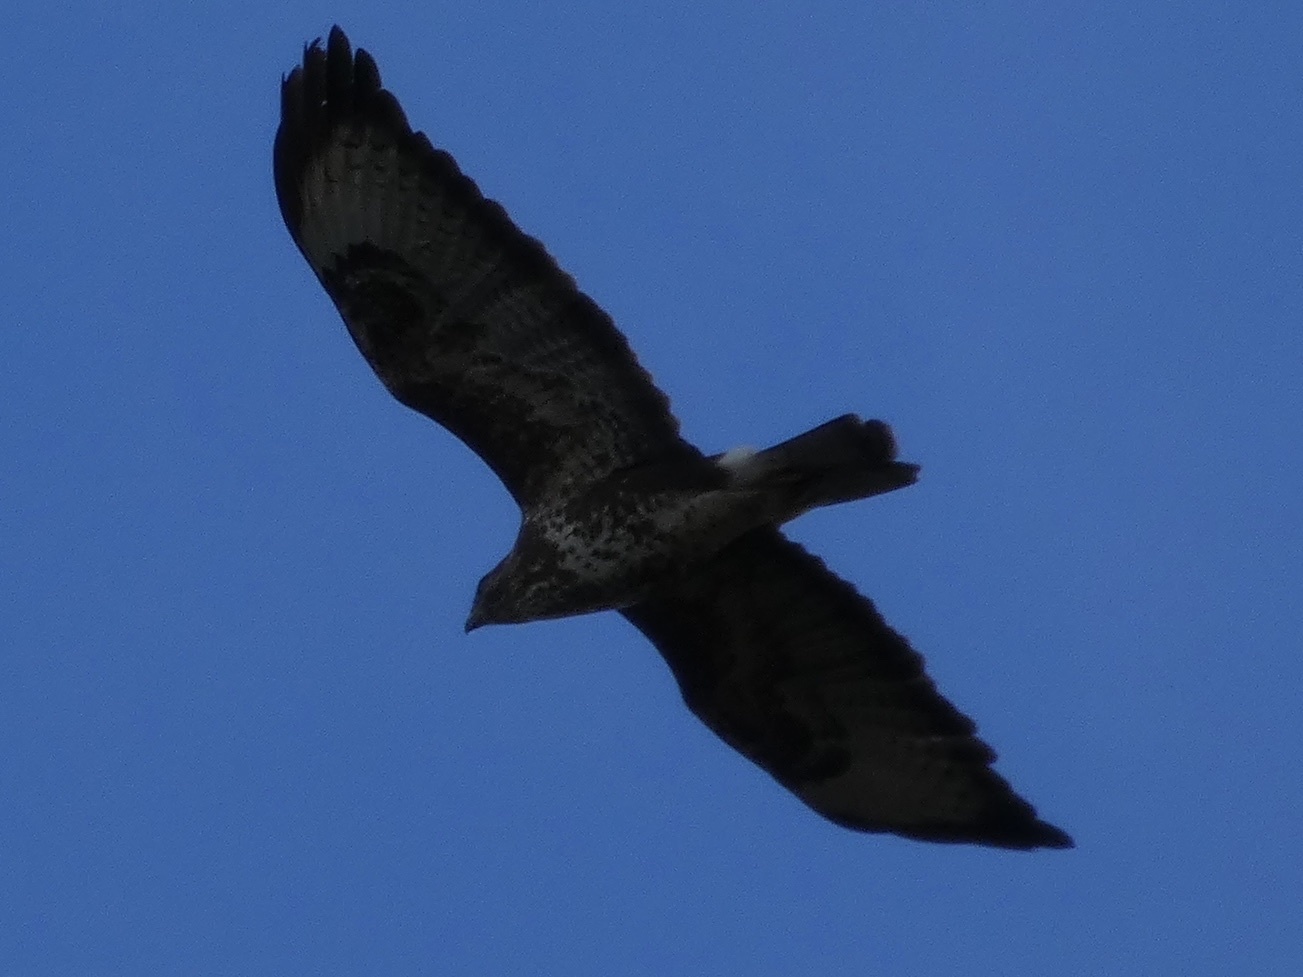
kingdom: Animalia
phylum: Chordata
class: Aves
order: Accipitriformes
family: Accipitridae
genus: Buteo
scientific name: Buteo buteo
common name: Common buzzard
